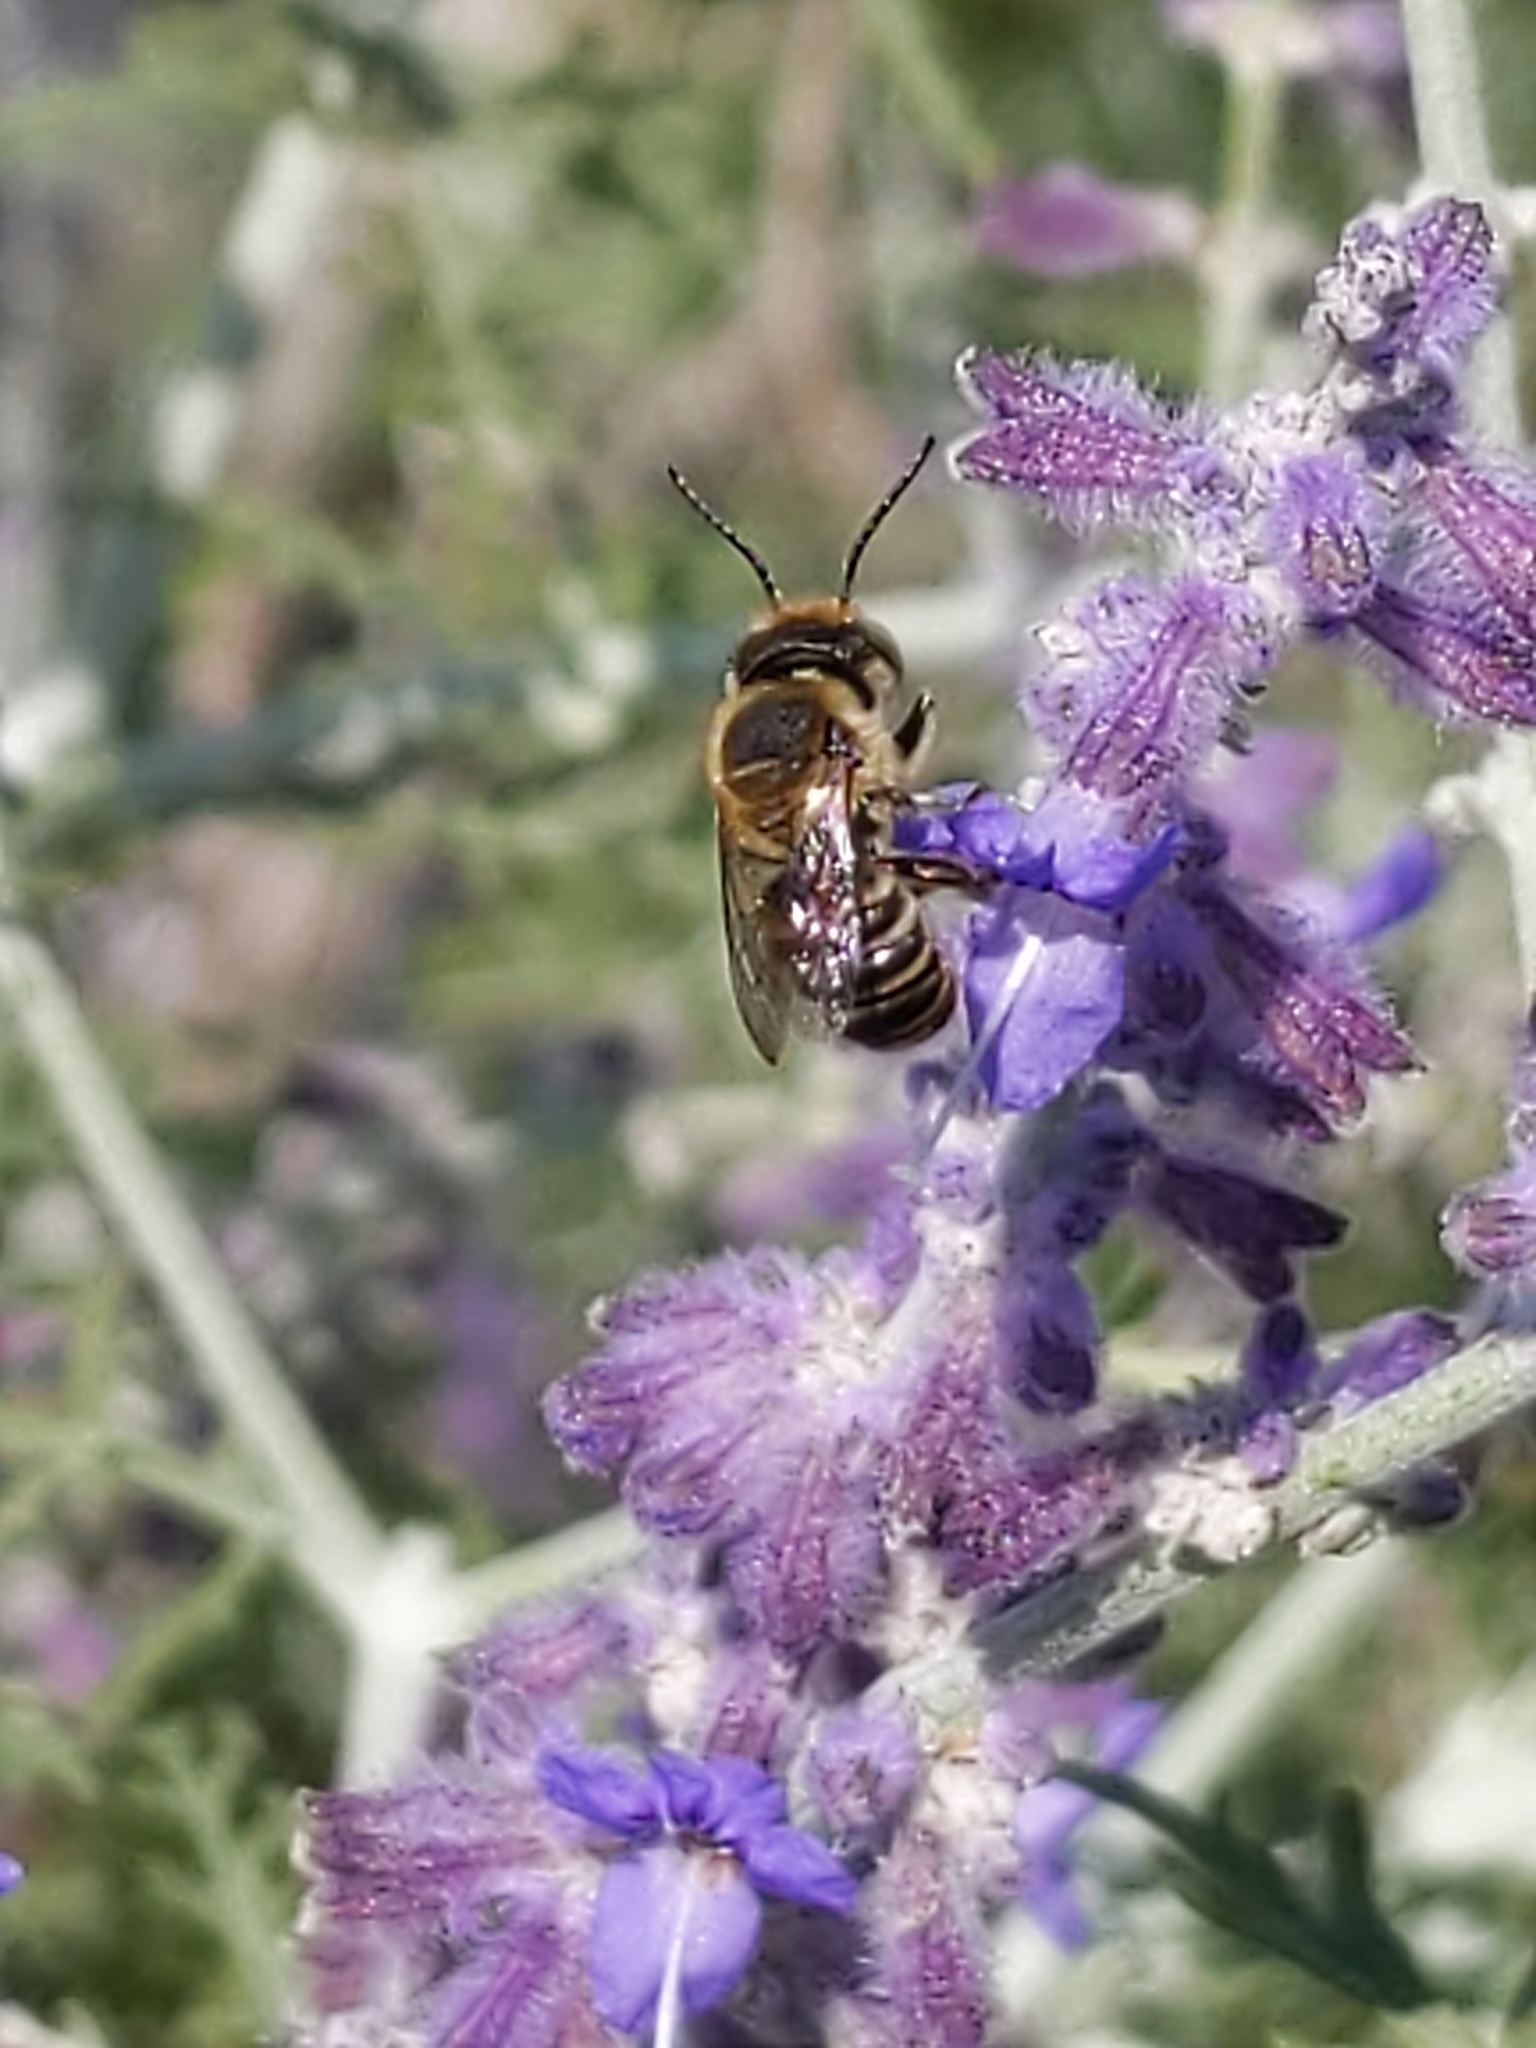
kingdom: Animalia
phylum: Arthropoda
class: Insecta
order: Hymenoptera
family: Megachilidae
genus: Megachile
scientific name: Megachile
